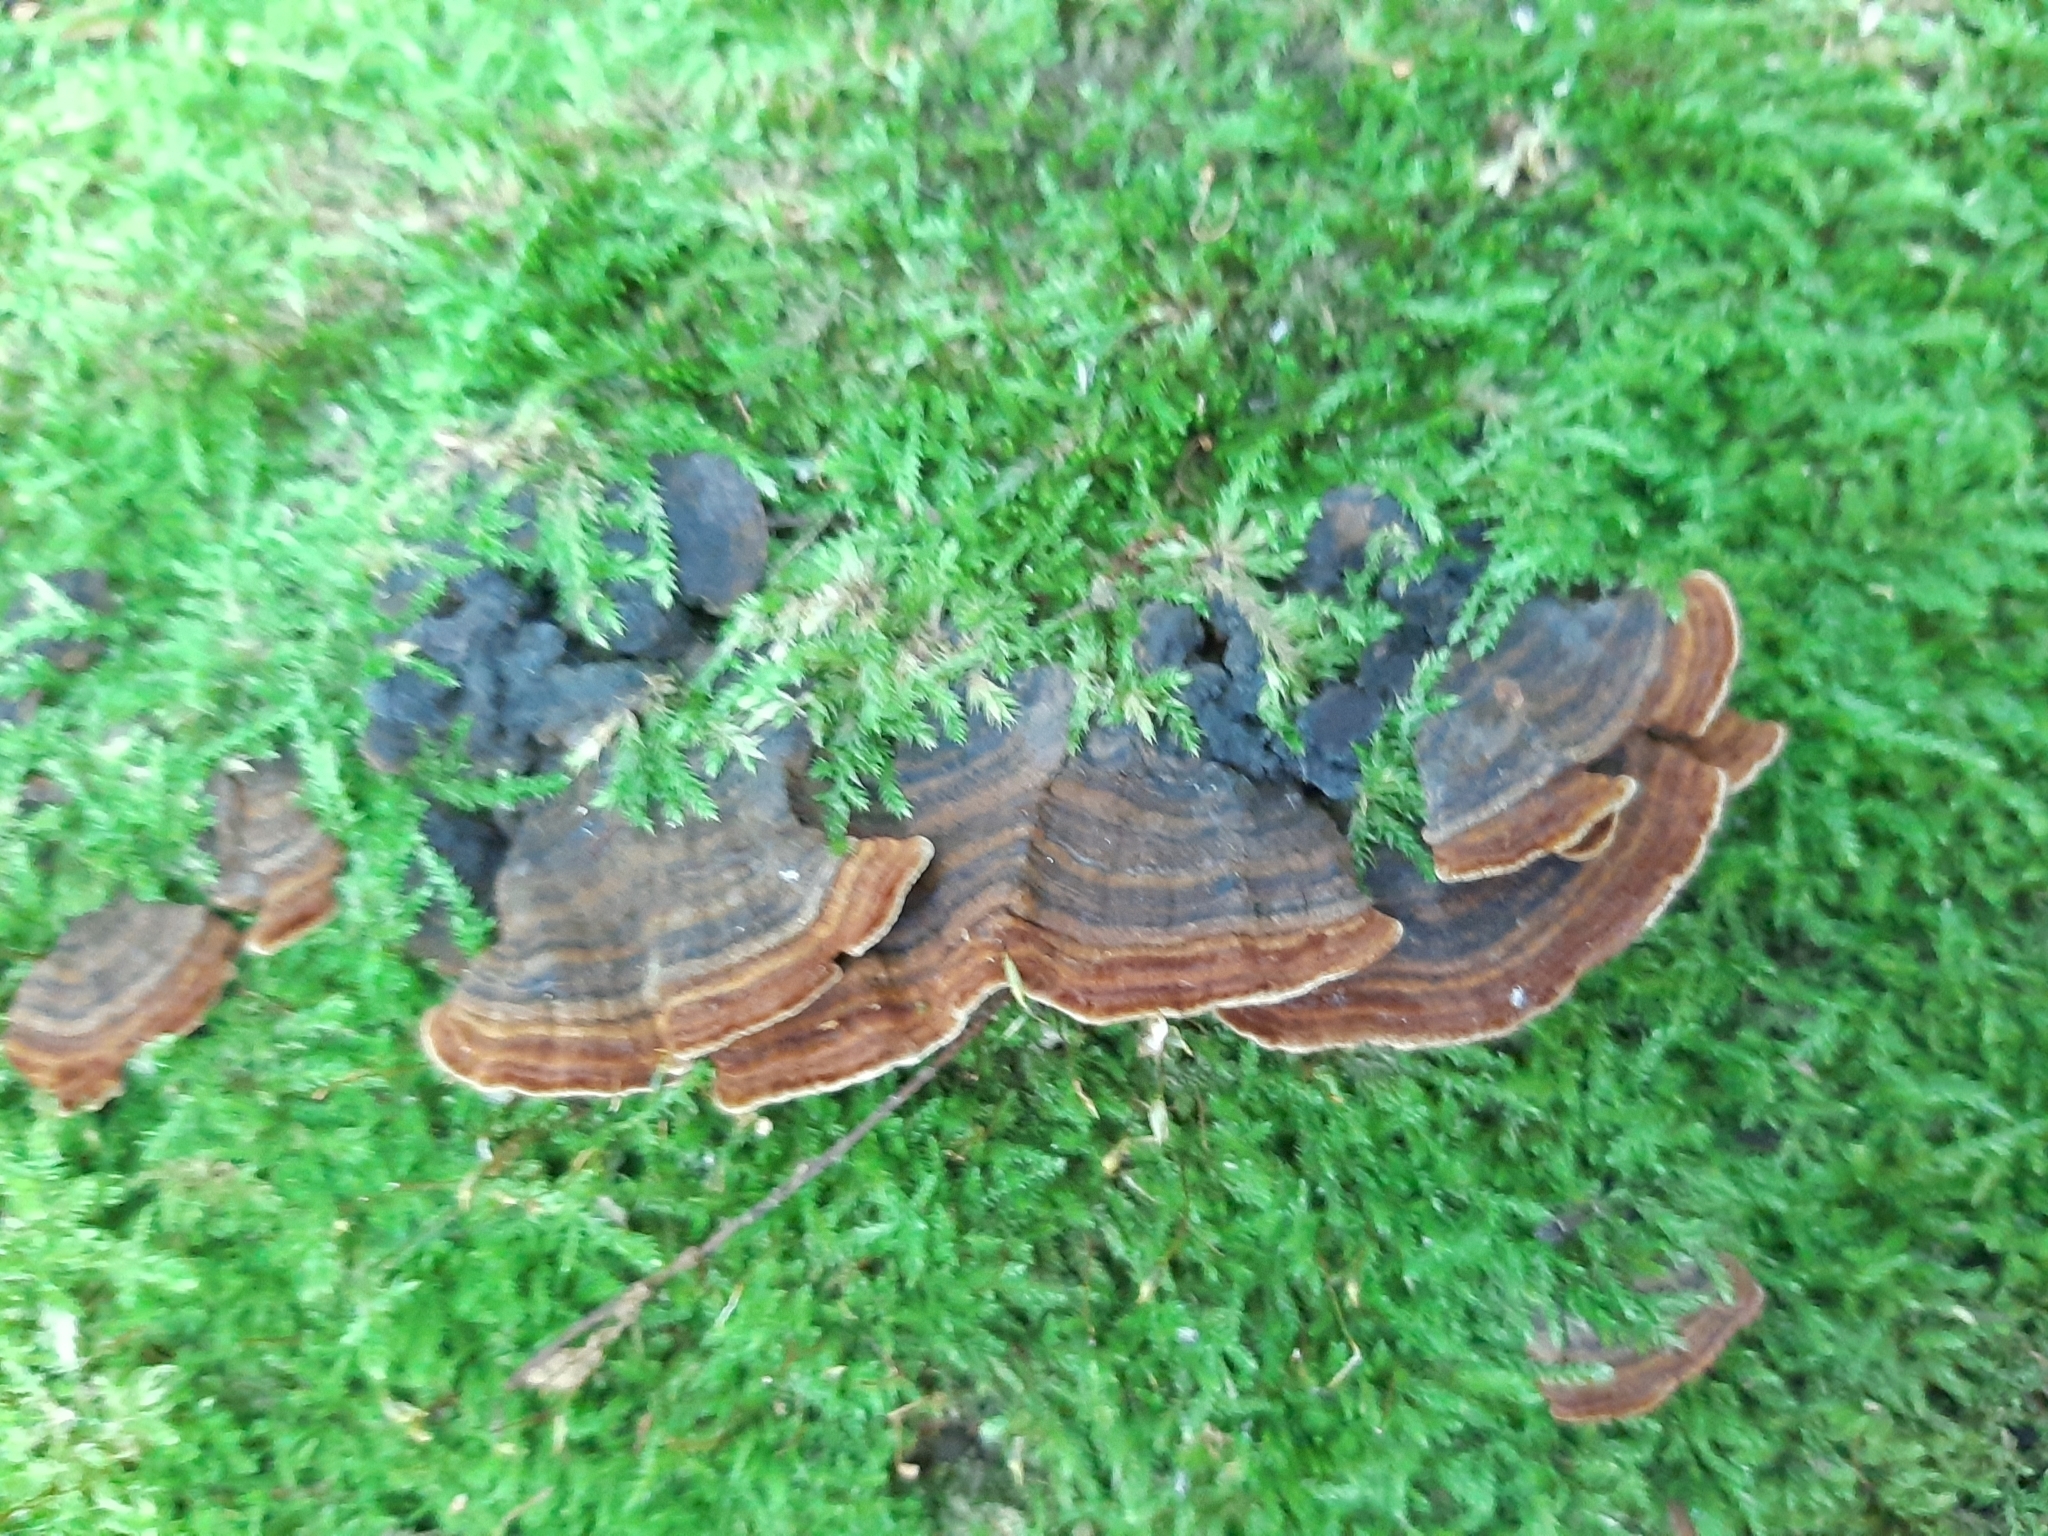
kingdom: Fungi
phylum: Basidiomycota
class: Agaricomycetes
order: Hymenochaetales
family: Hymenochaetaceae
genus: Hymenochaete
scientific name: Hymenochaete rubiginosa
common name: Oak curtain crust
